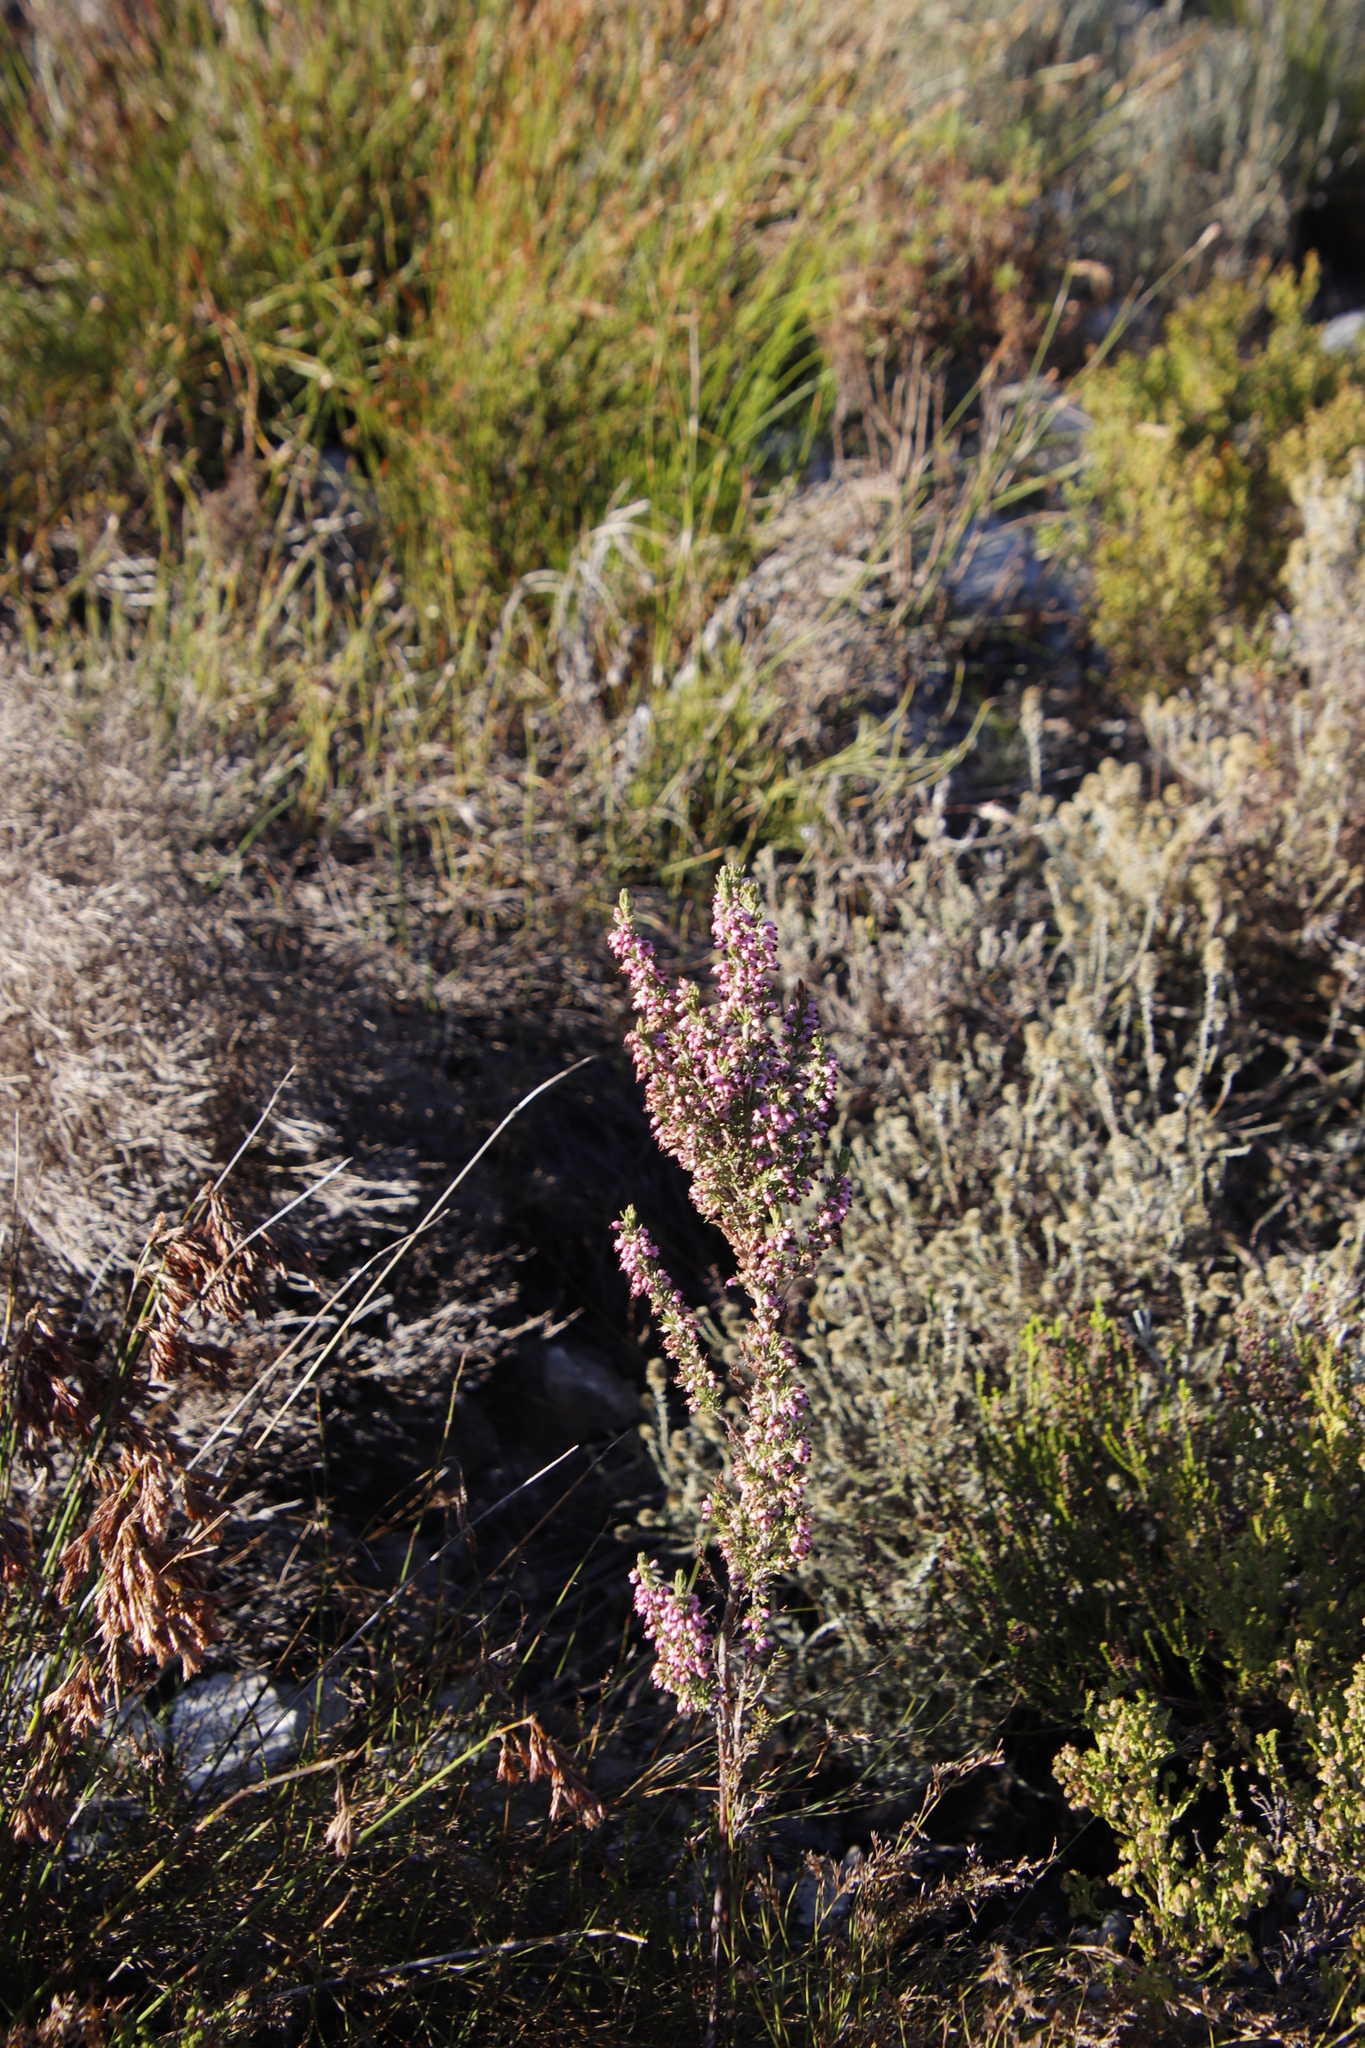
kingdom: Plantae
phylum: Tracheophyta
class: Magnoliopsida
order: Ericales
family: Ericaceae
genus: Erica
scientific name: Erica placentiflora
